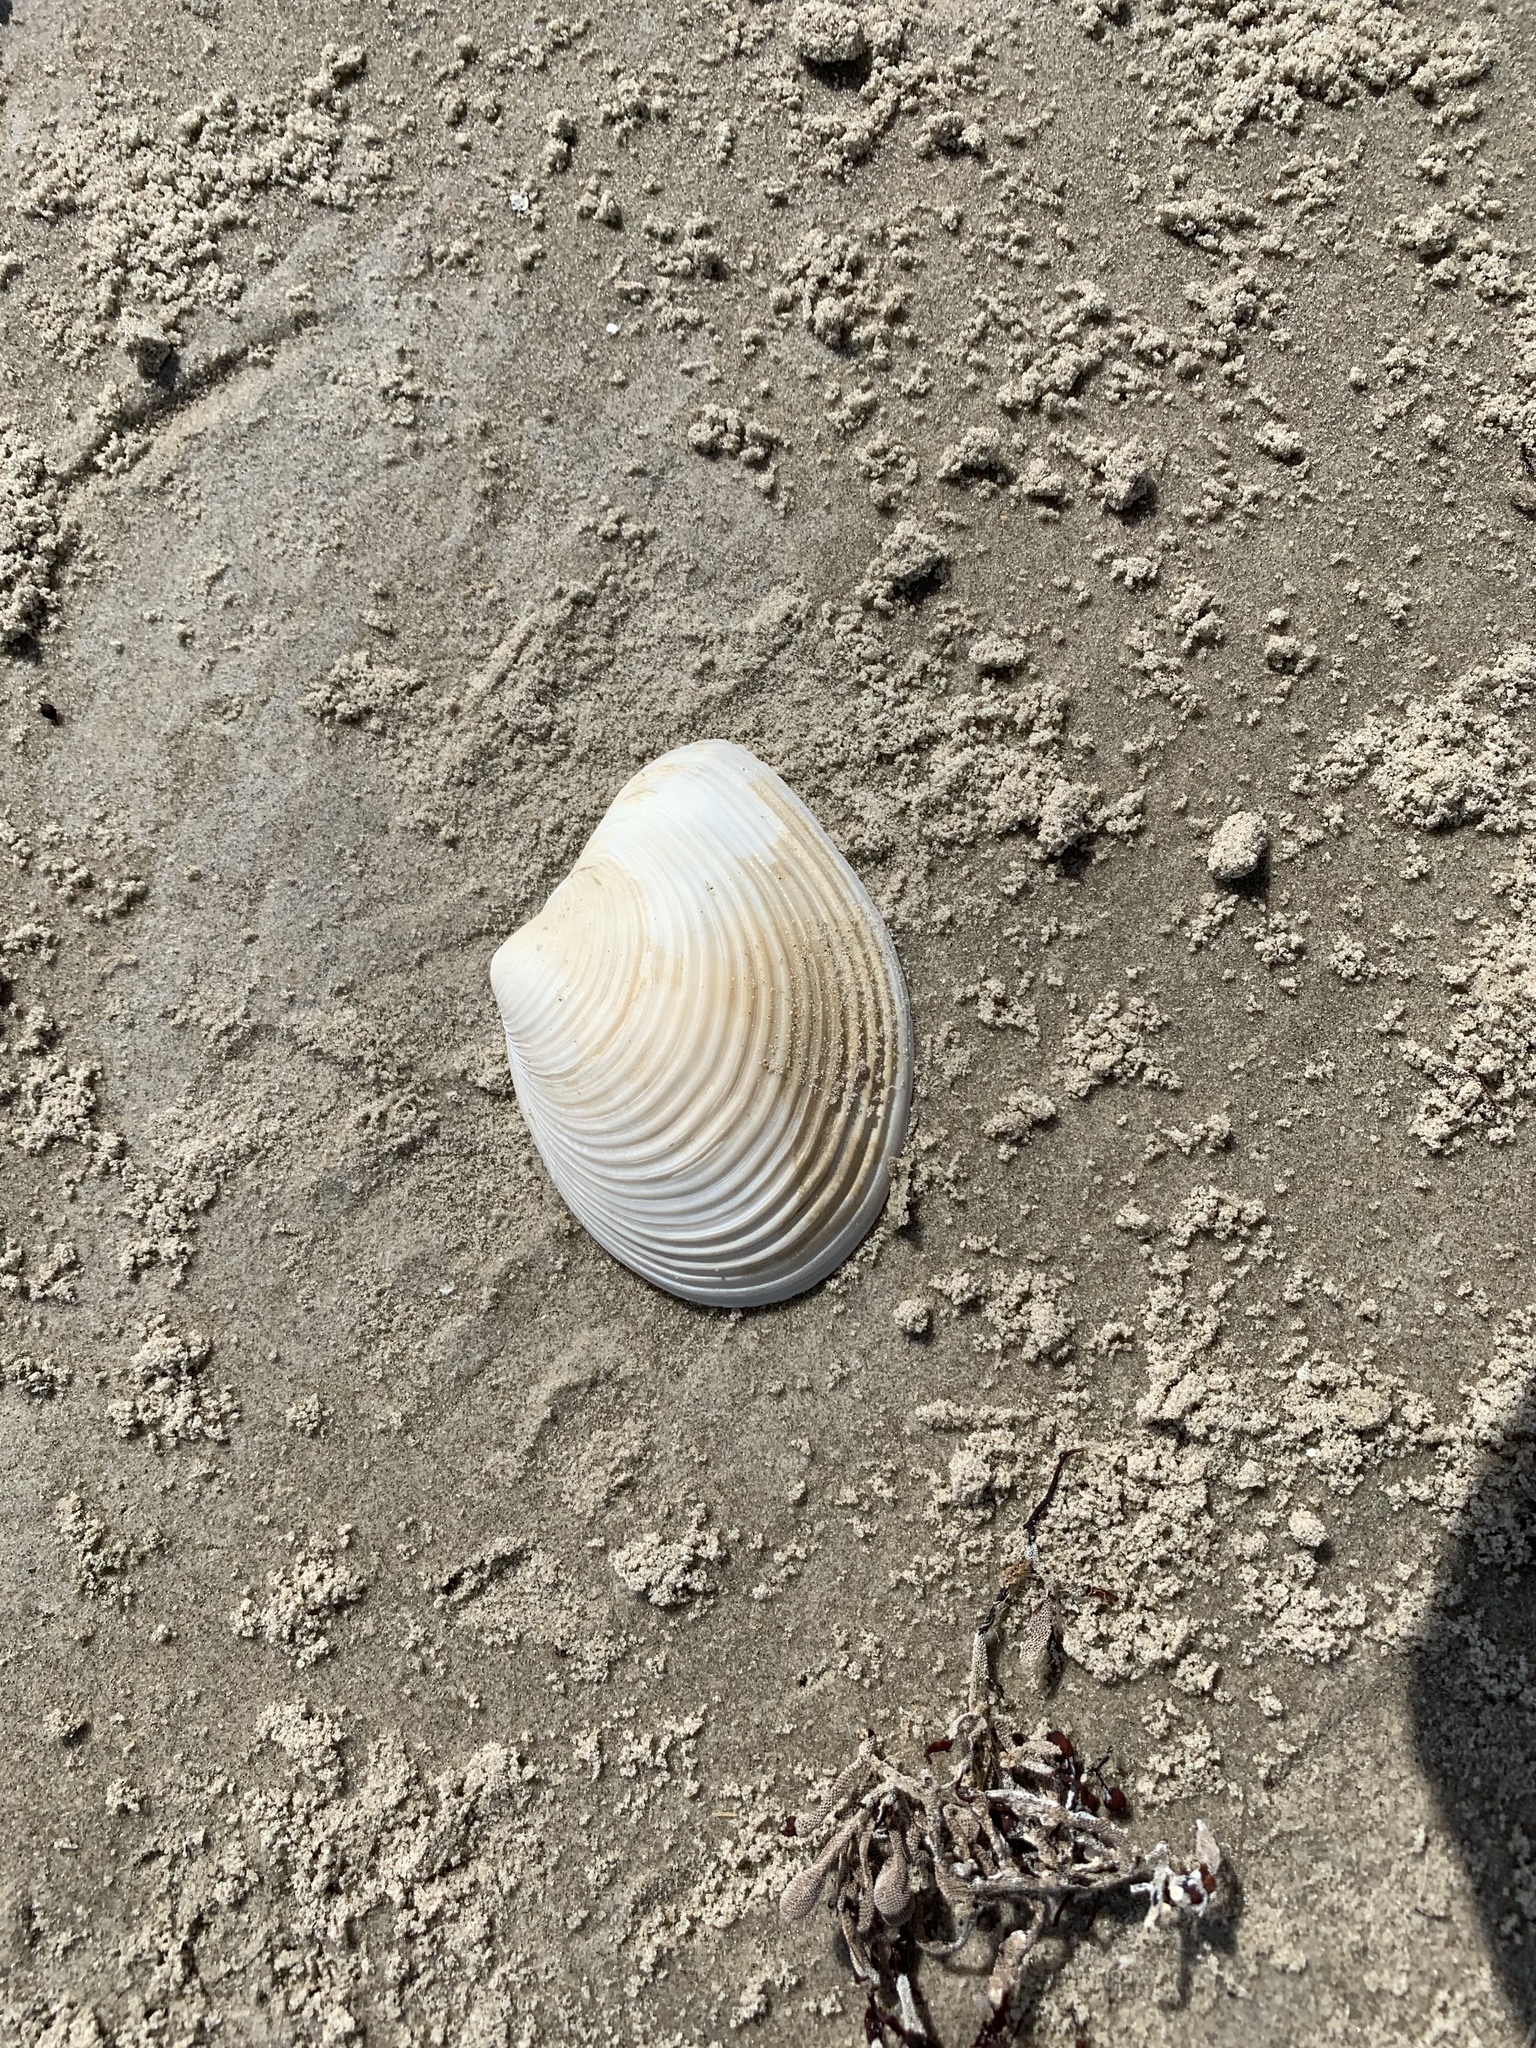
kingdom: Animalia
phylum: Mollusca
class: Bivalvia
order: Venerida
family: Anatinellidae
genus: Raeta
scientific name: Raeta plicatella
